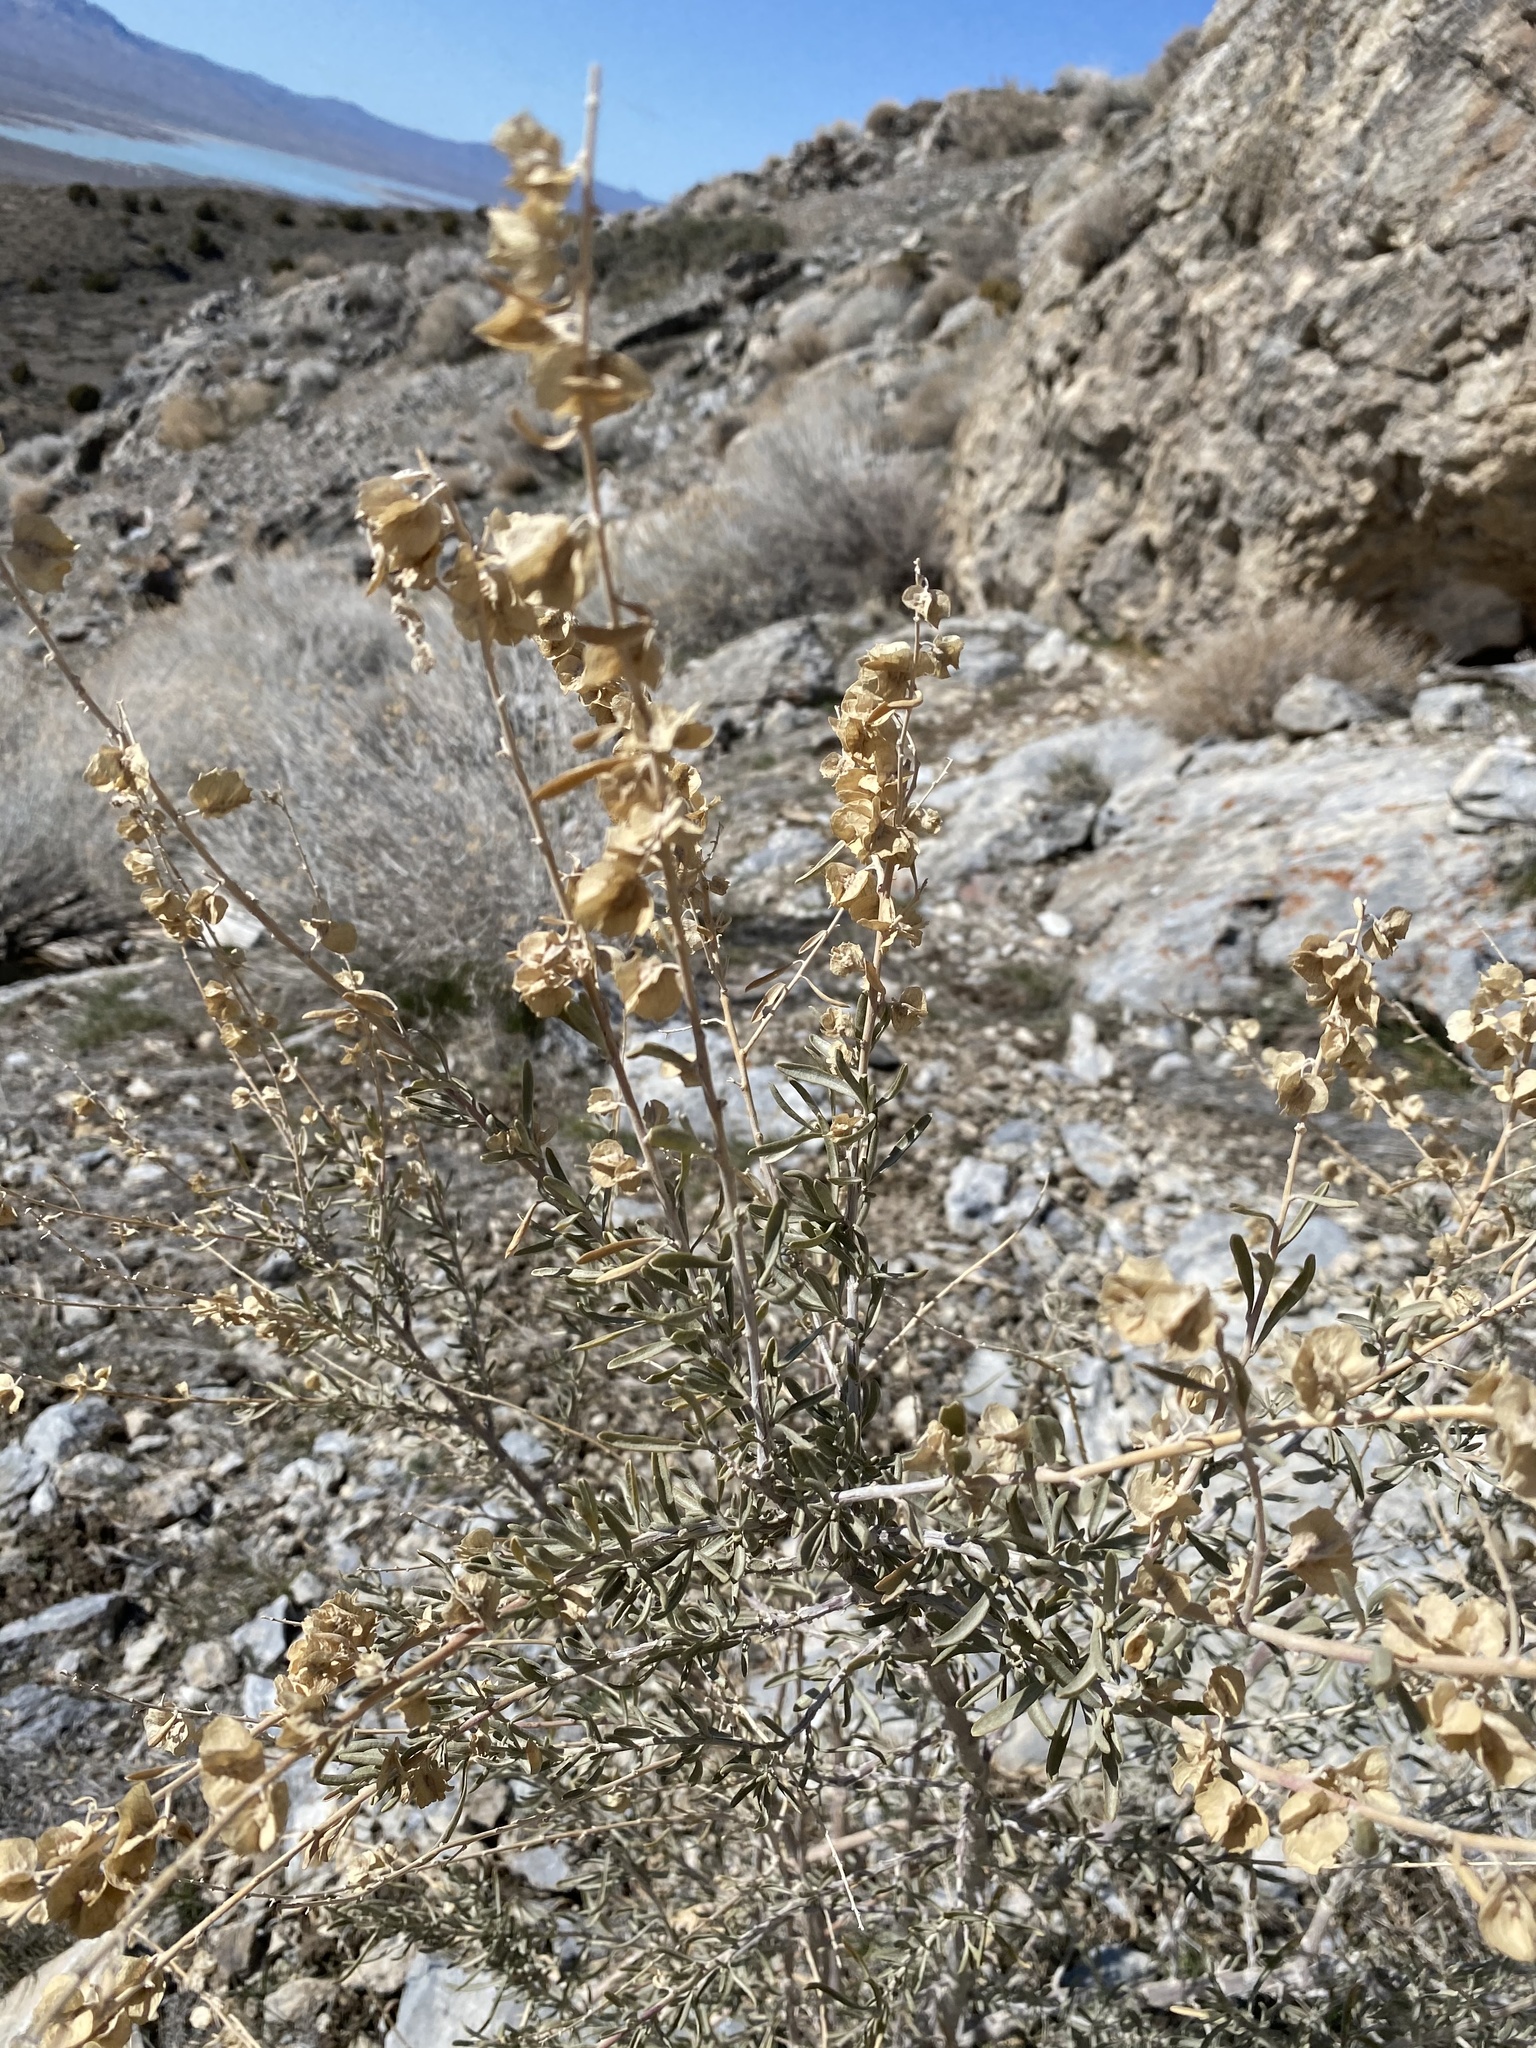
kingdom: Plantae
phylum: Tracheophyta
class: Magnoliopsida
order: Caryophyllales
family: Amaranthaceae
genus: Atriplex
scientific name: Atriplex canescens
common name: Four-wing saltbush
